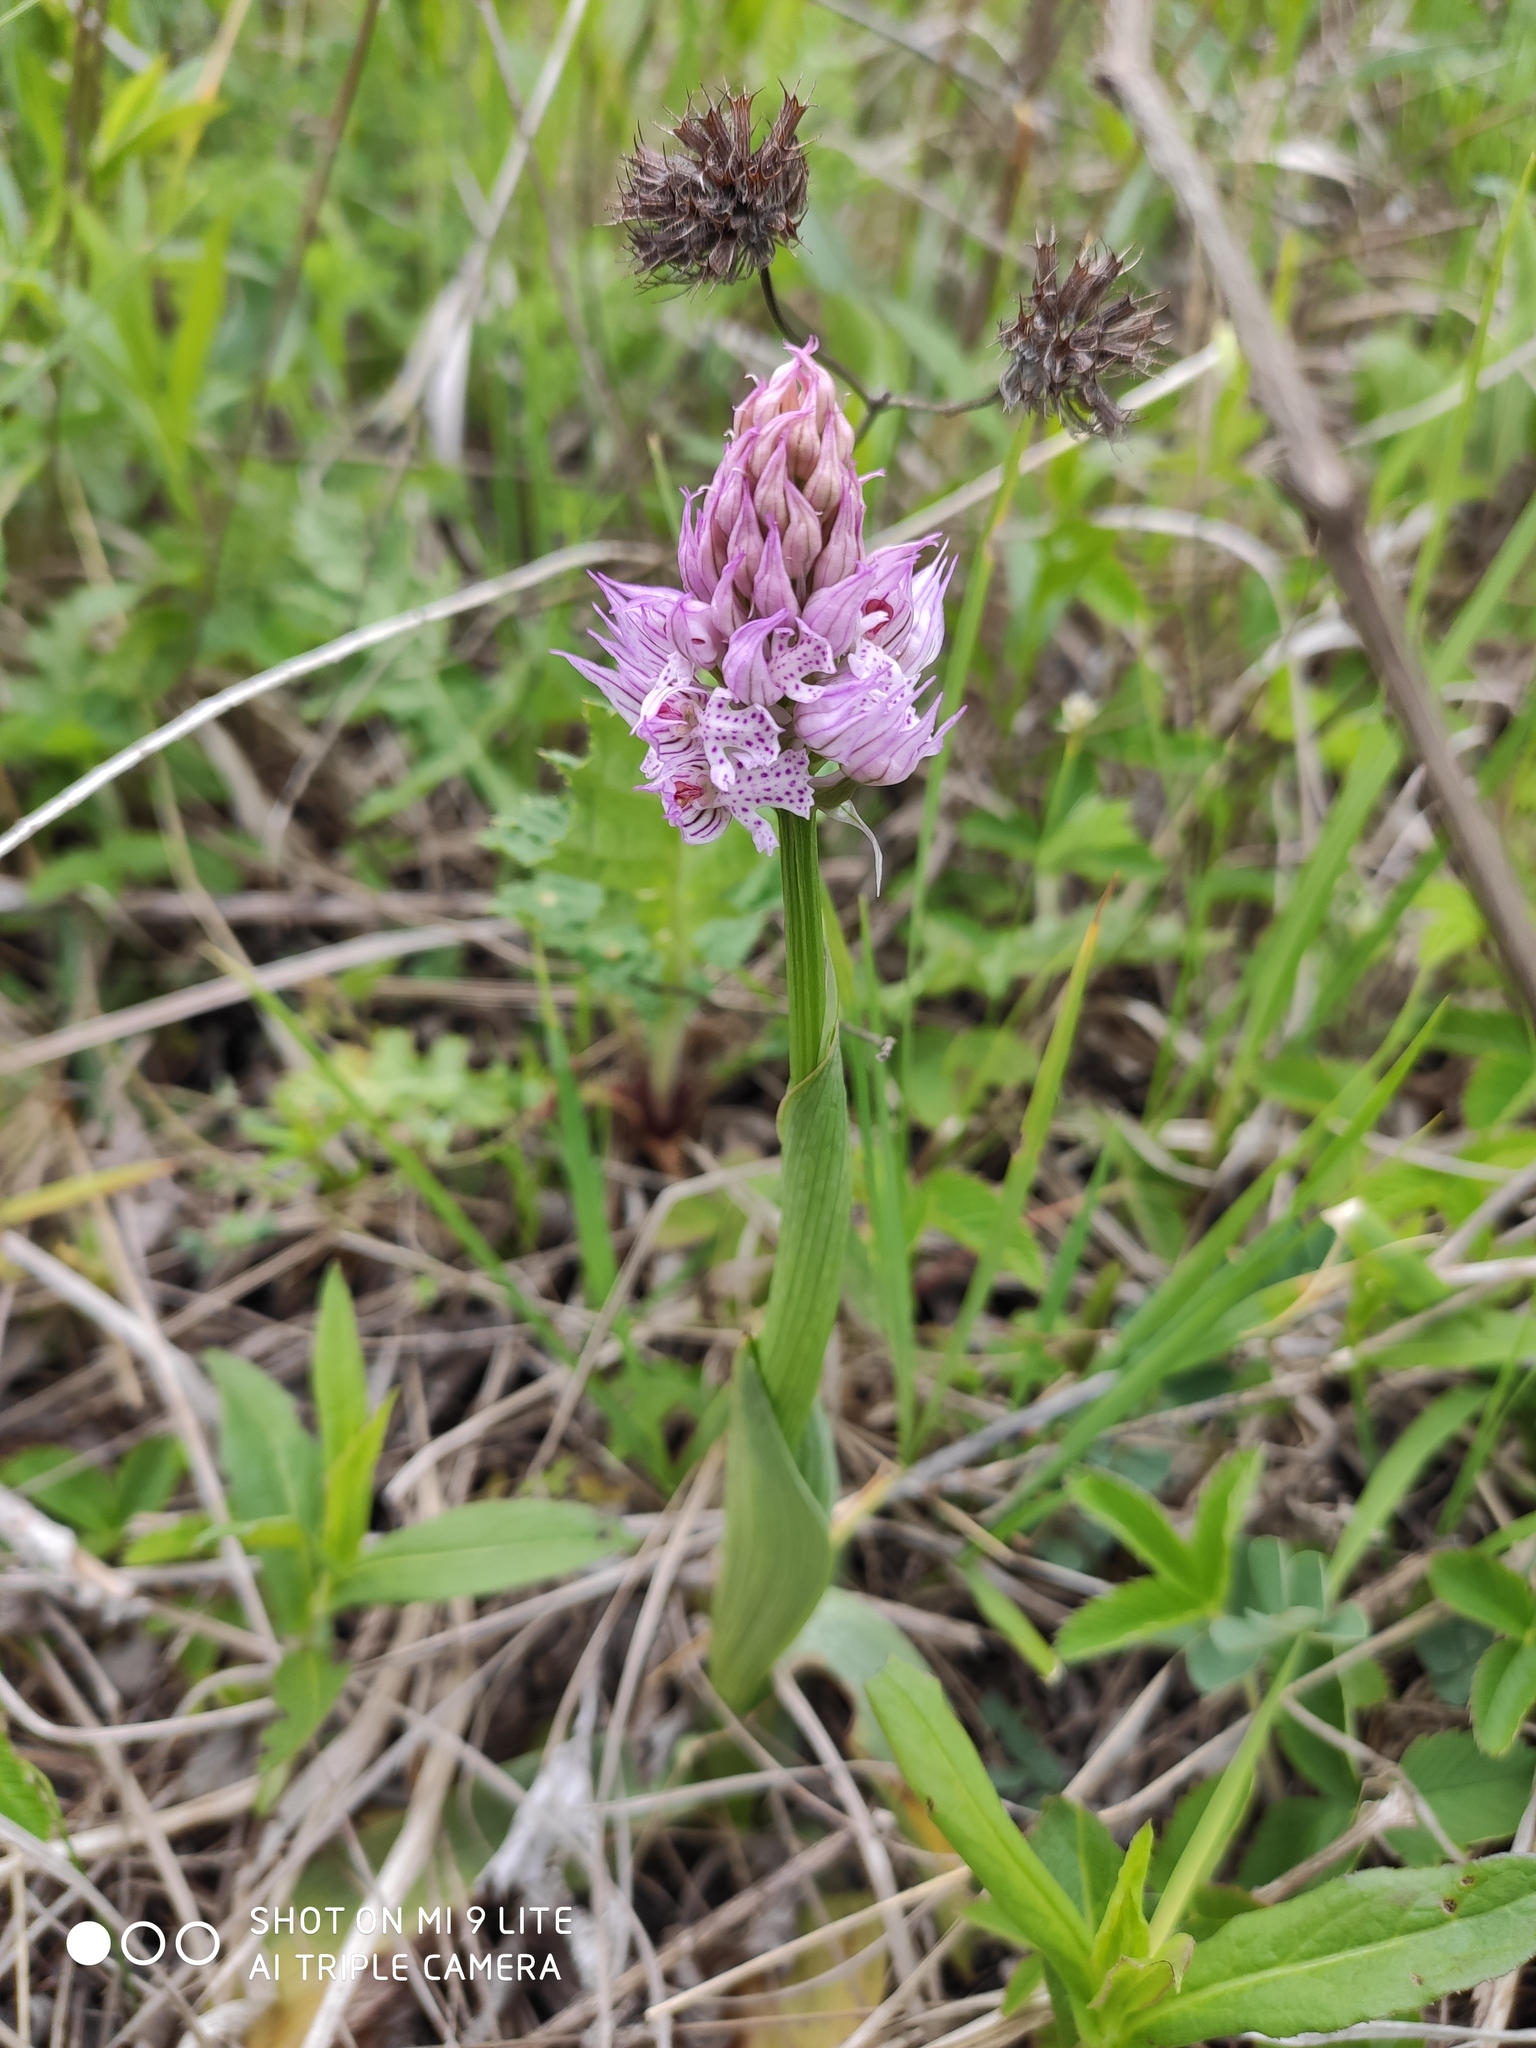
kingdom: Plantae
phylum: Tracheophyta
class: Liliopsida
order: Asparagales
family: Orchidaceae
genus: Neotinea
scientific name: Neotinea tridentata
